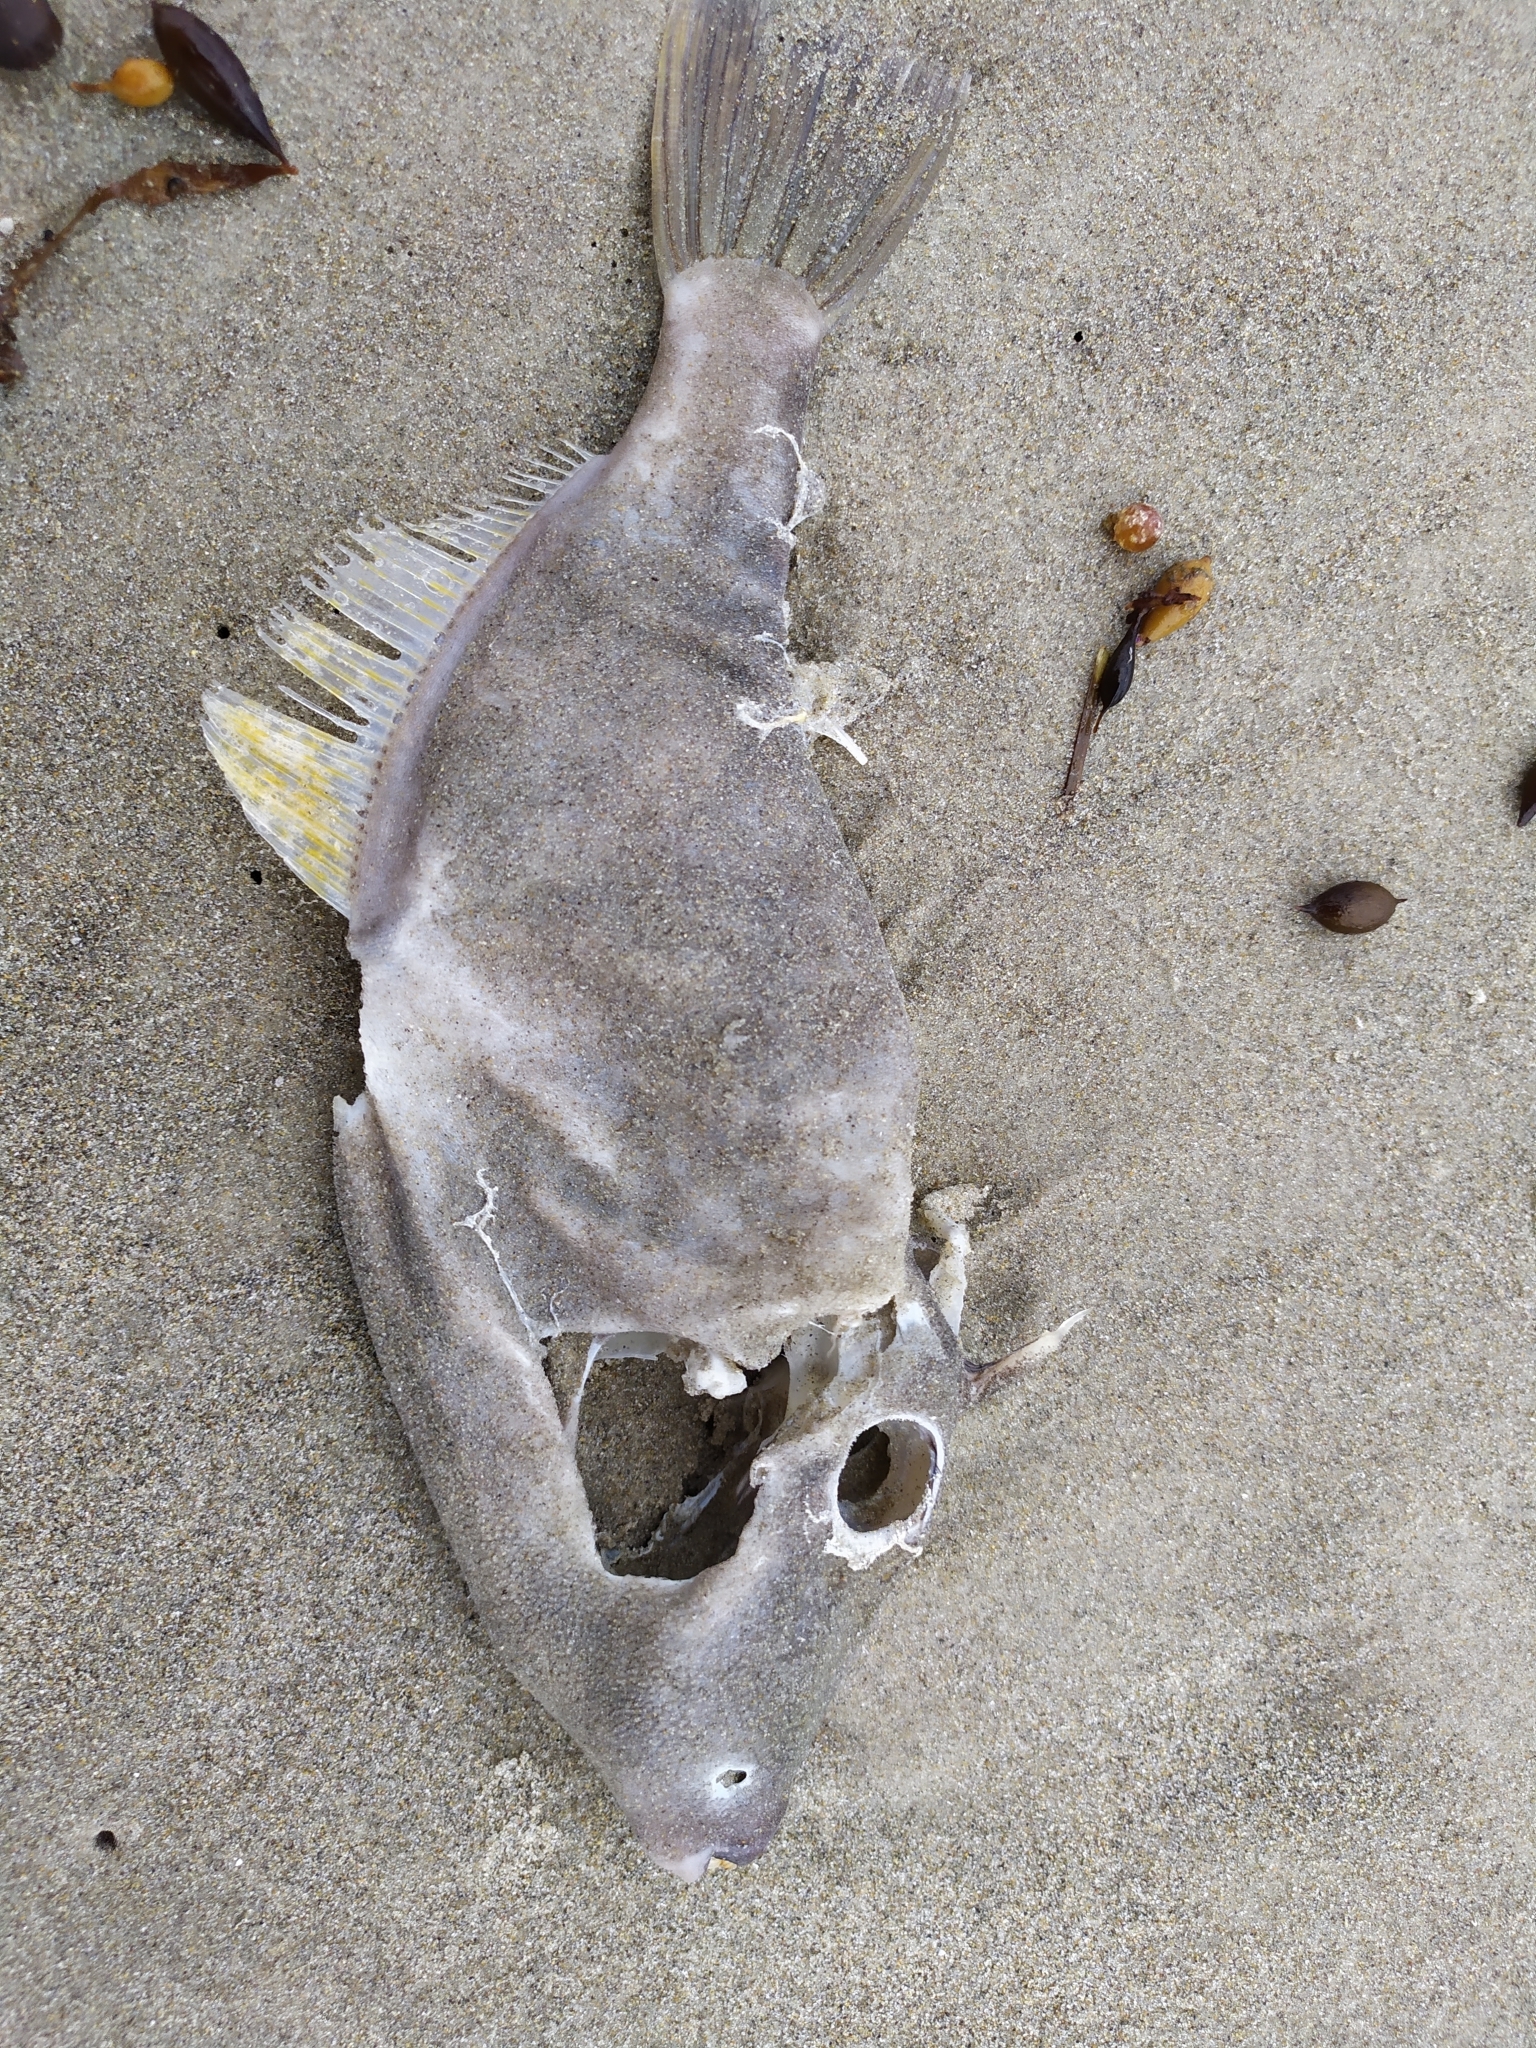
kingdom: Animalia
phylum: Chordata
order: Tetraodontiformes
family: Monacanthidae
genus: Meuschenia
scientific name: Meuschenia scaber
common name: Cosmopolitan leatherjacket
